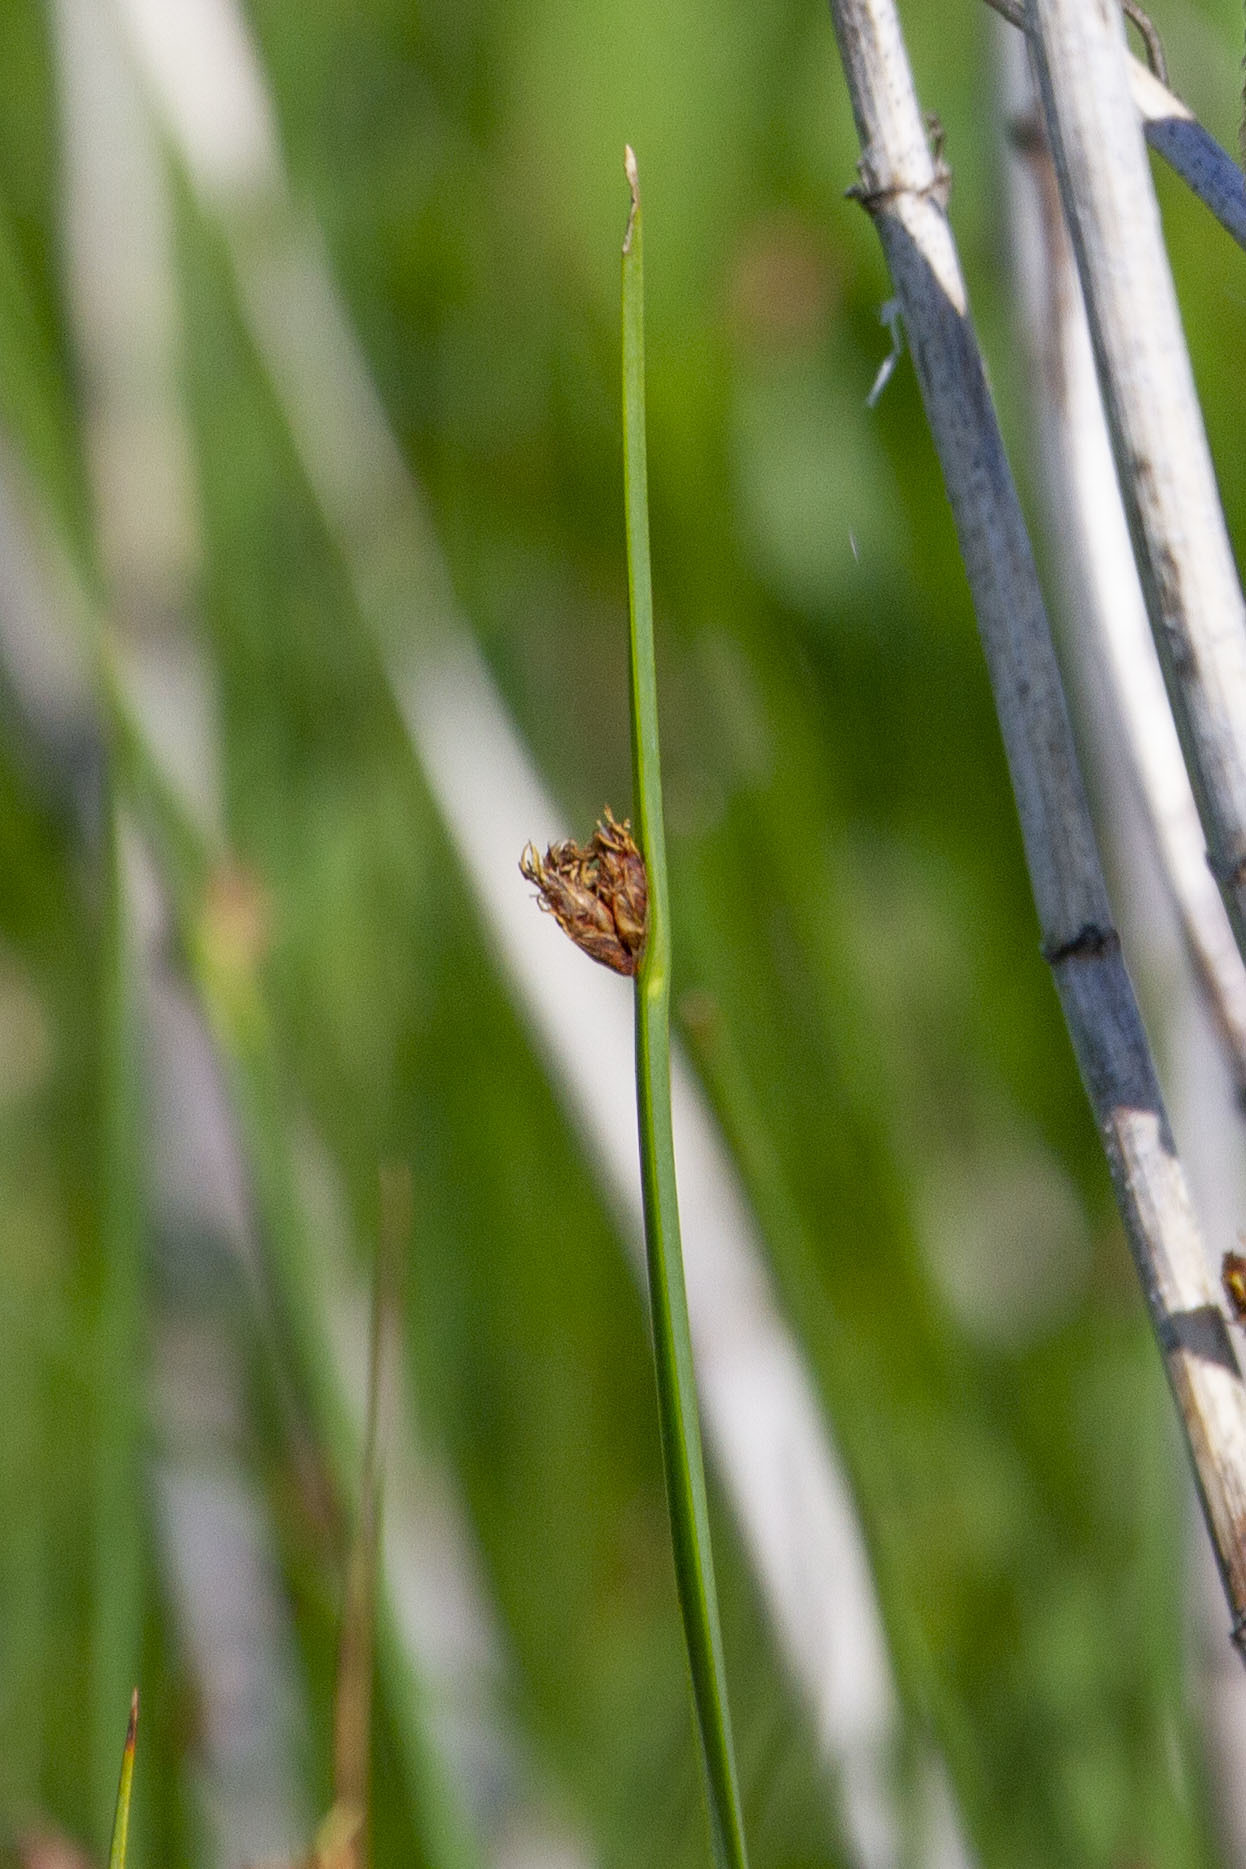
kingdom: Plantae
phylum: Tracheophyta
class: Liliopsida
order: Poales
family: Cyperaceae
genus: Schoenoplectus
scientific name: Schoenoplectus pungens
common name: Sharp club-rush
